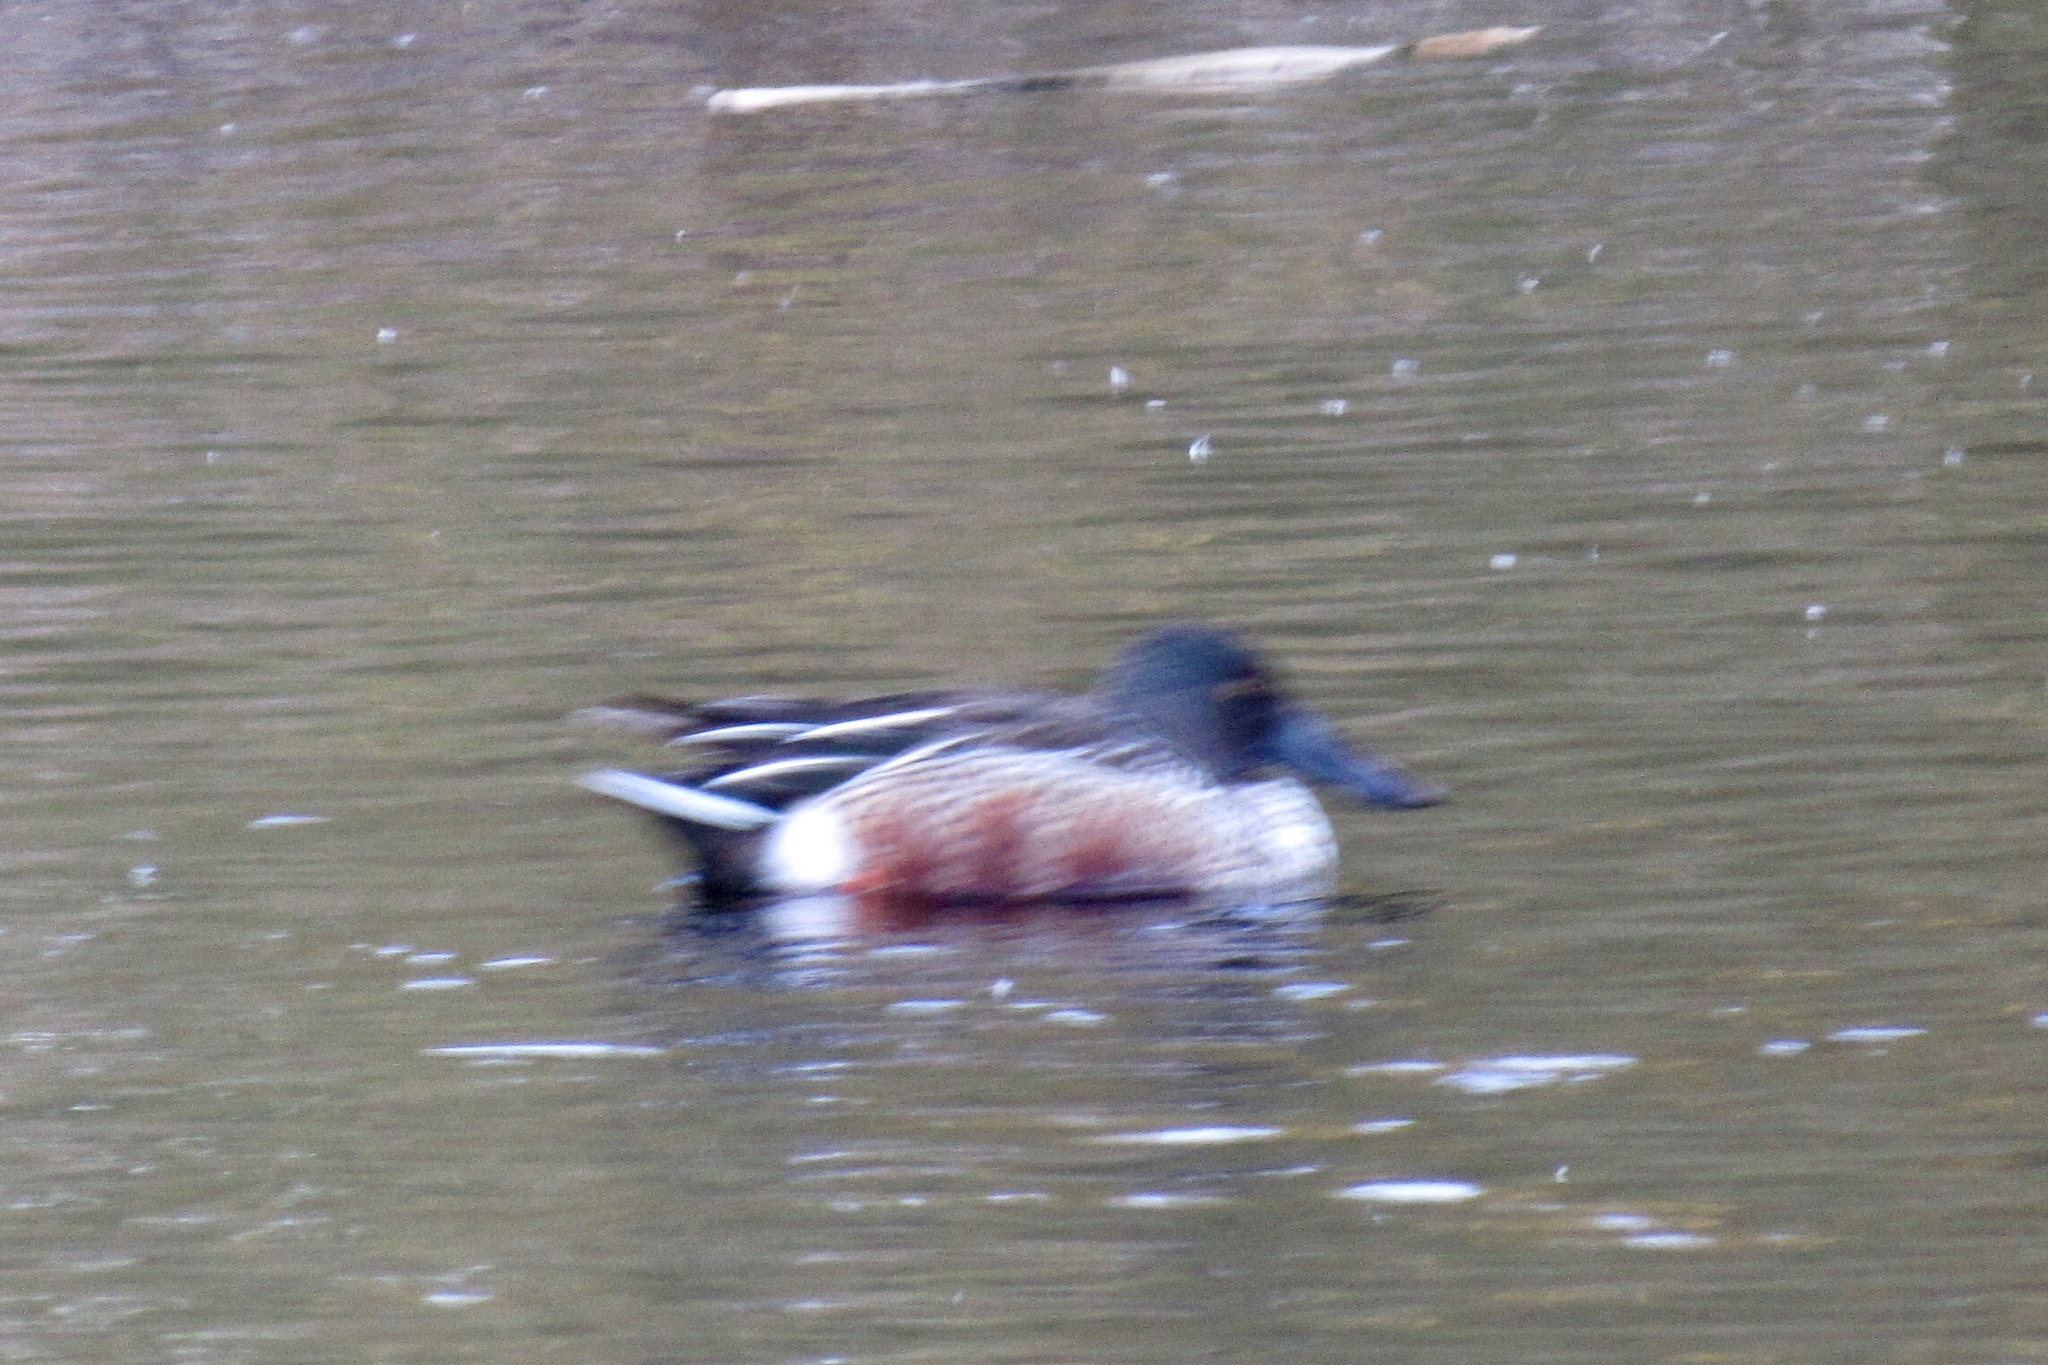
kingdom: Animalia
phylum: Chordata
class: Aves
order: Anseriformes
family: Anatidae
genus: Spatula
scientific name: Spatula clypeata
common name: Northern shoveler
